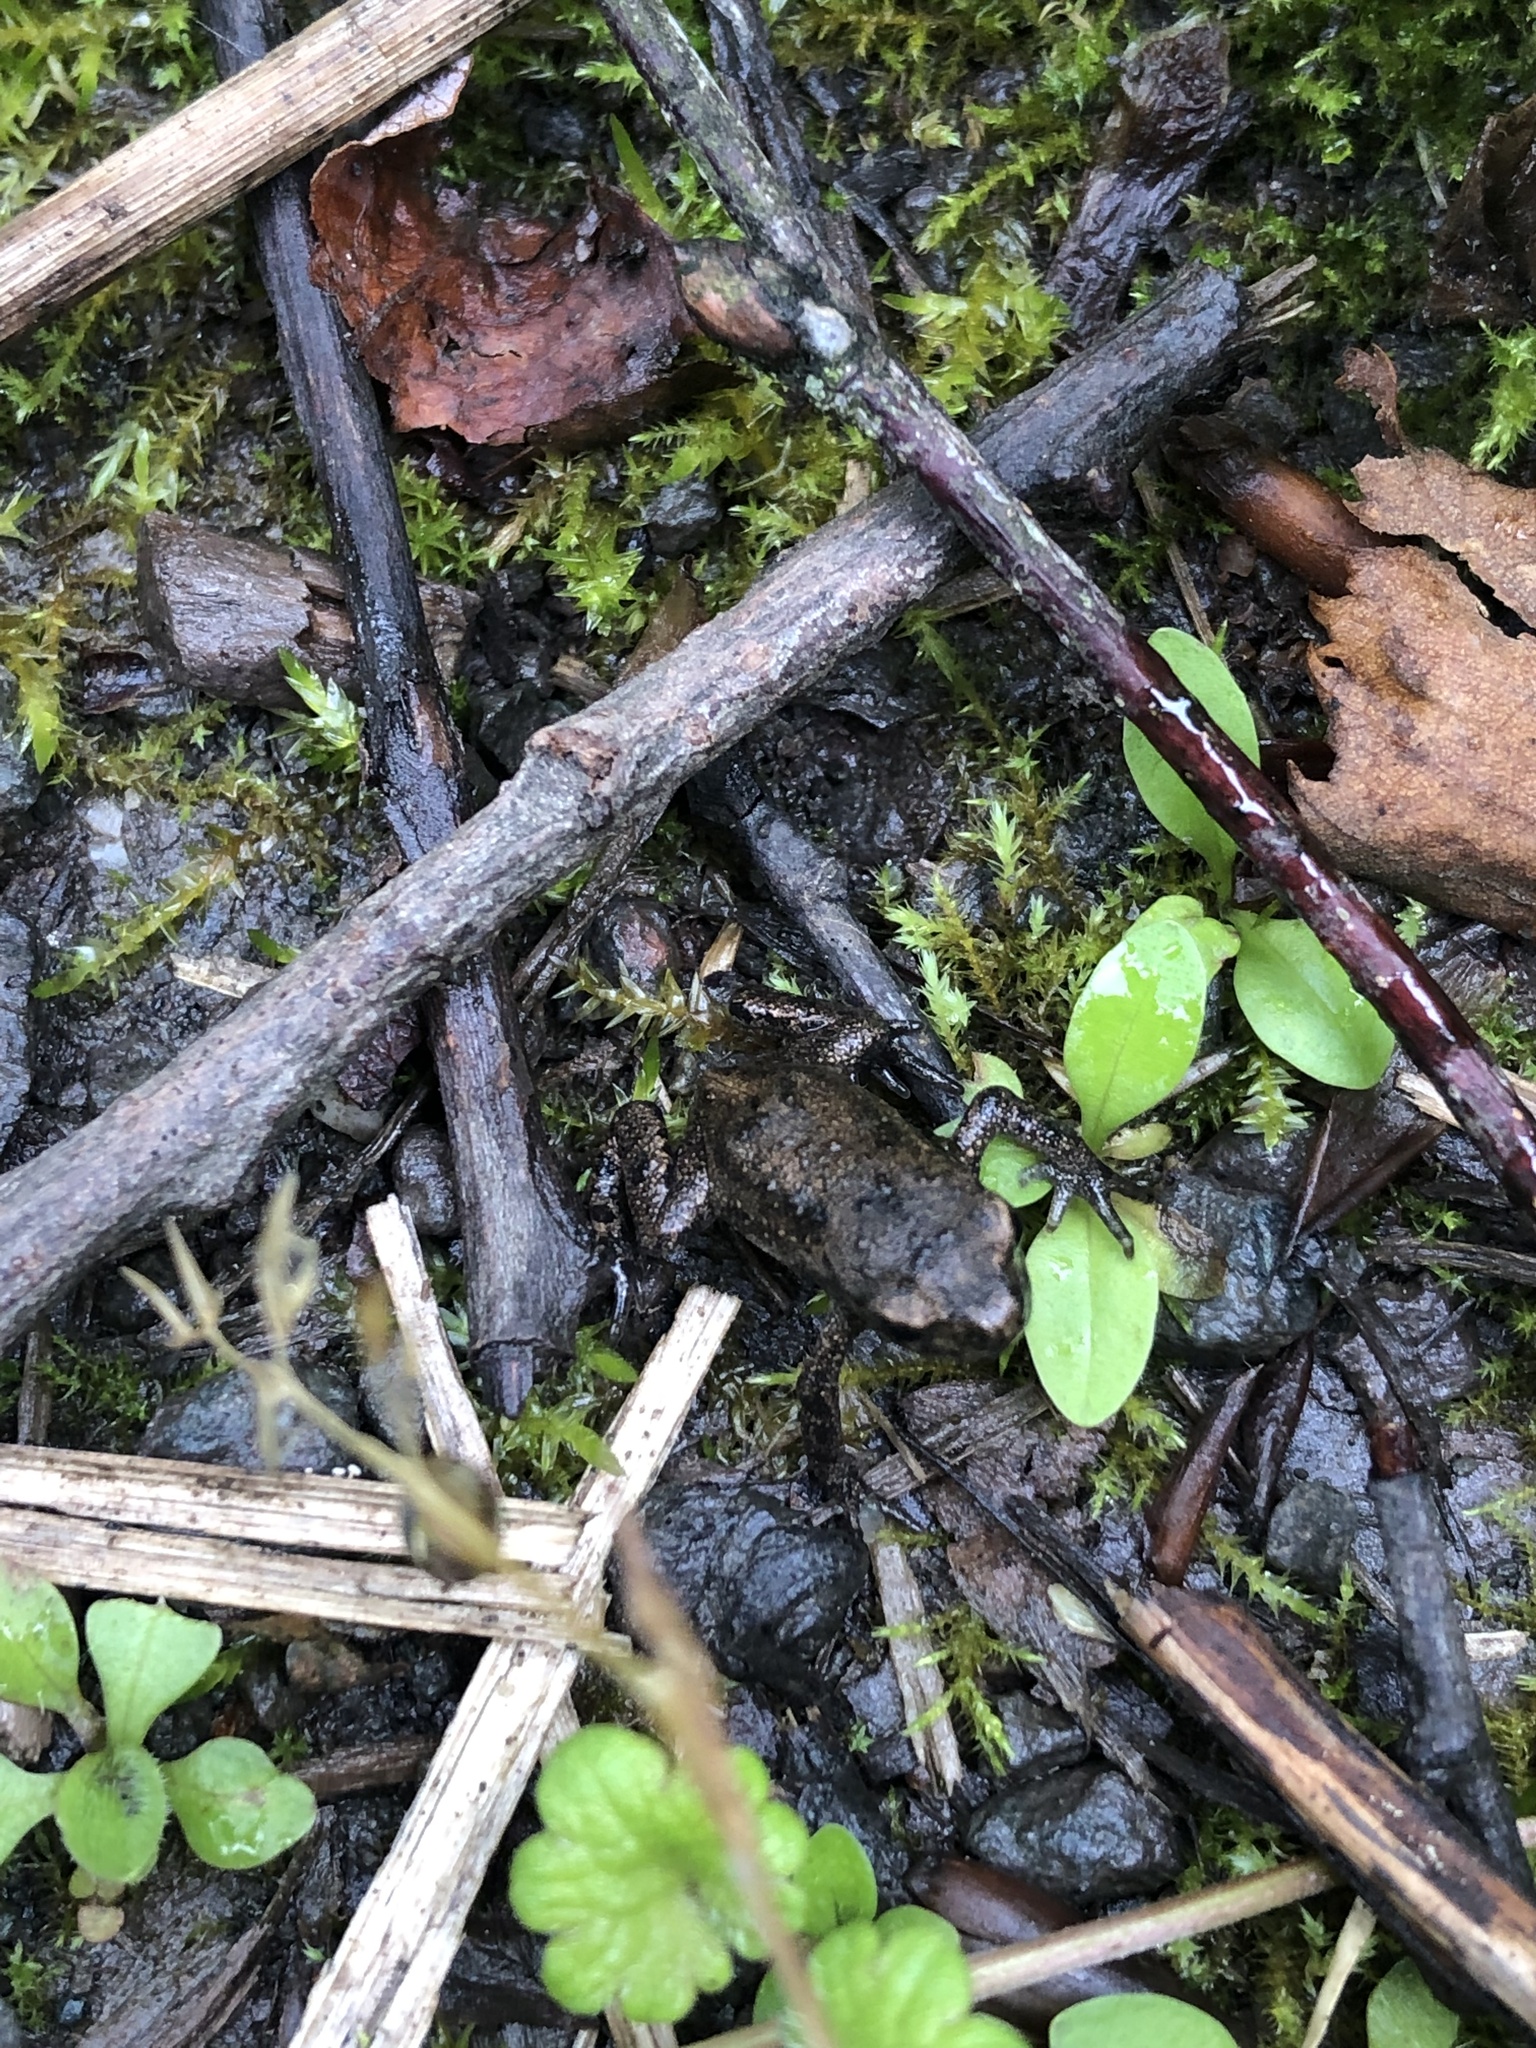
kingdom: Animalia
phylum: Chordata
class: Amphibia
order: Anura
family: Bufonidae
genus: Bufo
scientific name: Bufo bufo
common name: Common toad
